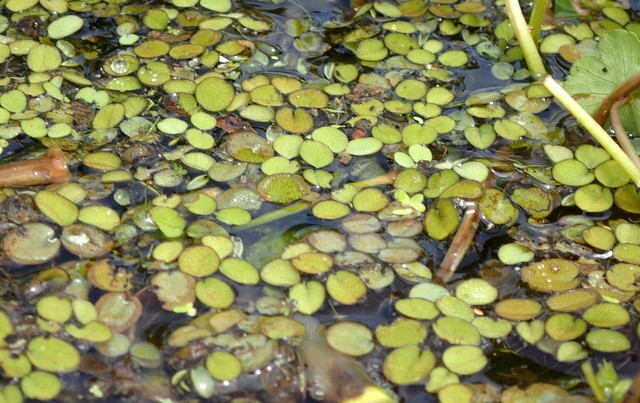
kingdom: Plantae
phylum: Tracheophyta
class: Polypodiopsida
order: Salviniales
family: Salviniaceae
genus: Salvinia
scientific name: Salvinia minima
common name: Water spangles
